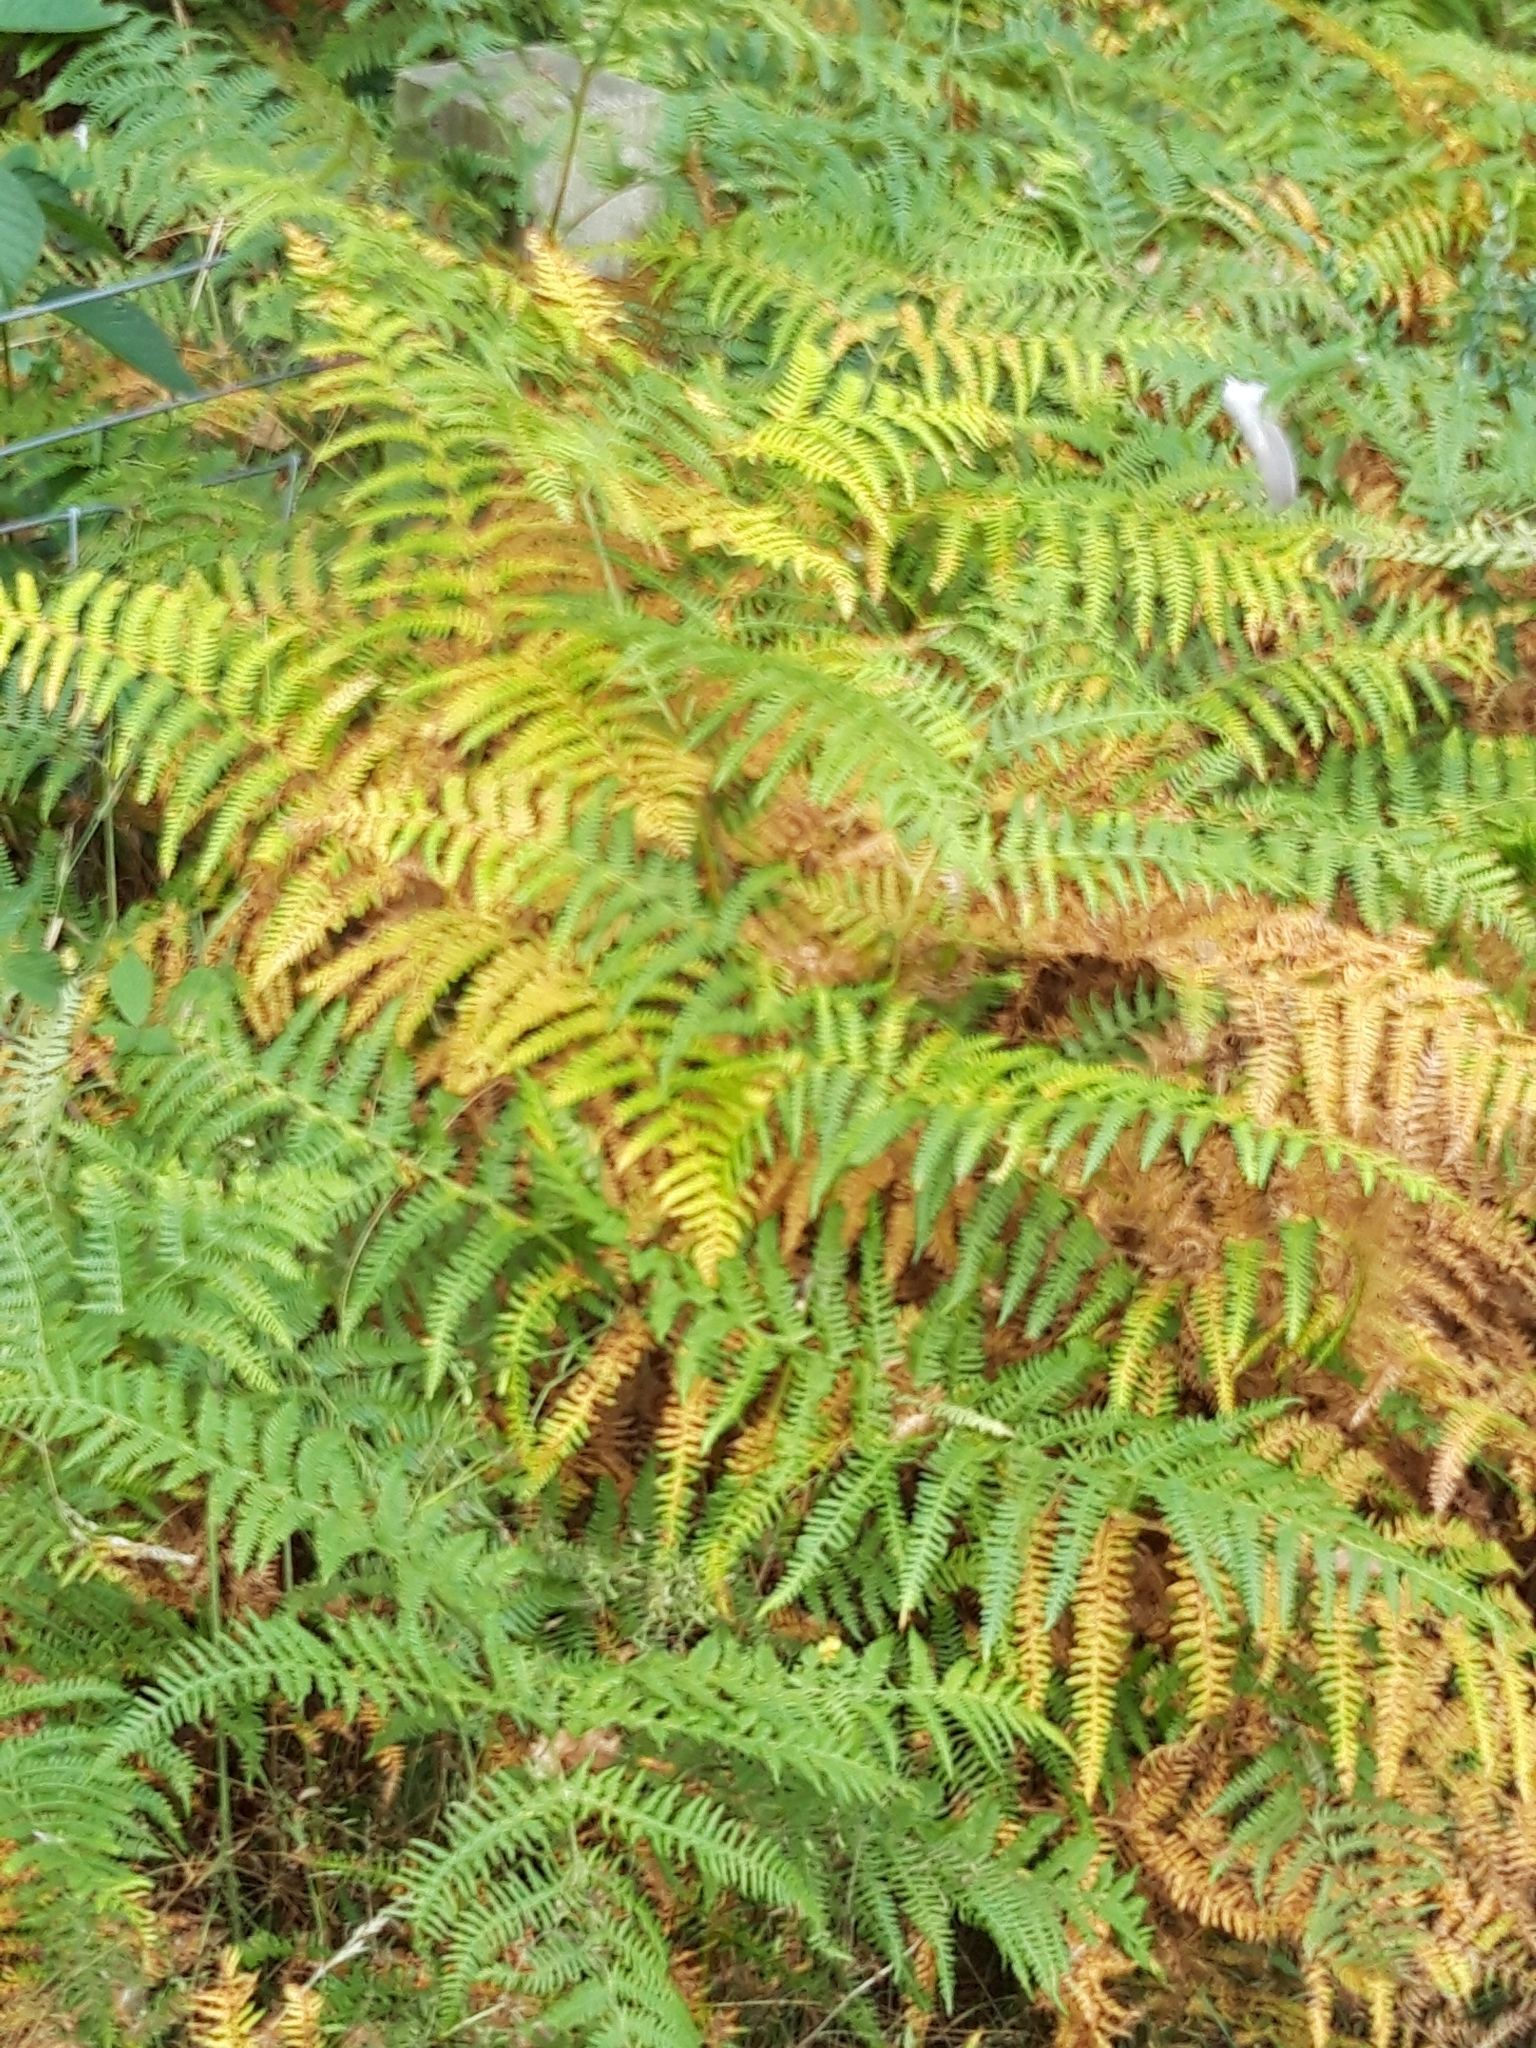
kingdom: Plantae
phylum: Tracheophyta
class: Polypodiopsida
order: Polypodiales
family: Dennstaedtiaceae
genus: Pteridium
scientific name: Pteridium aquilinum
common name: Bracken
